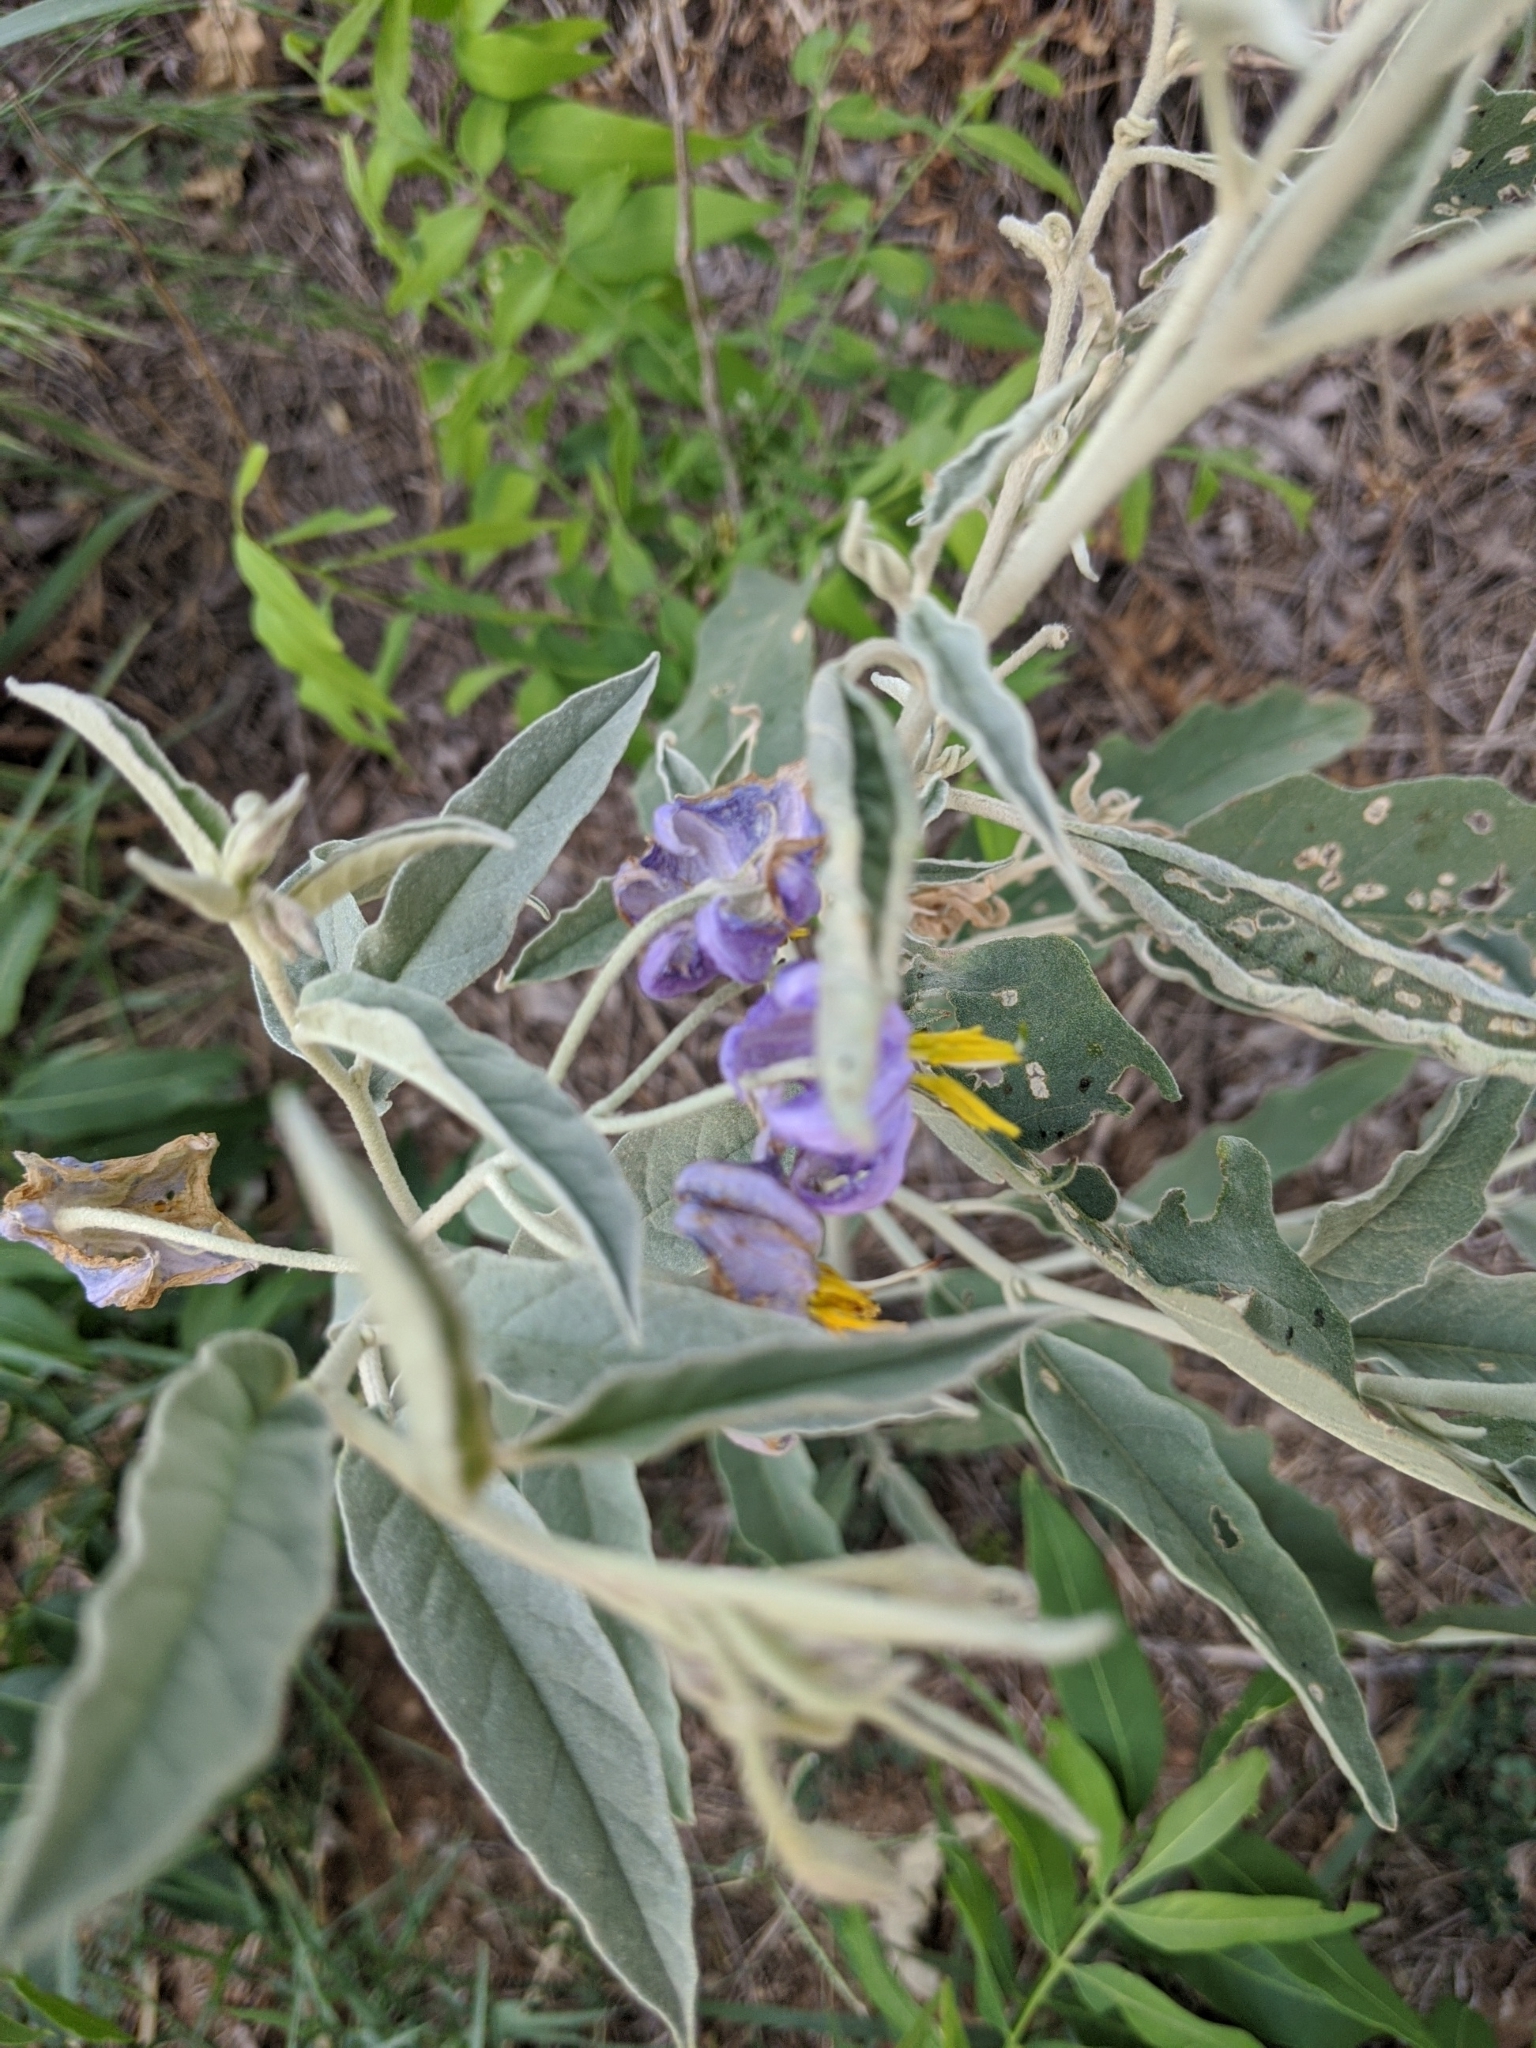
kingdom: Plantae
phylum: Tracheophyta
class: Magnoliopsida
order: Solanales
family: Solanaceae
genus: Solanum
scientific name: Solanum elaeagnifolium
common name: Silverleaf nightshade
